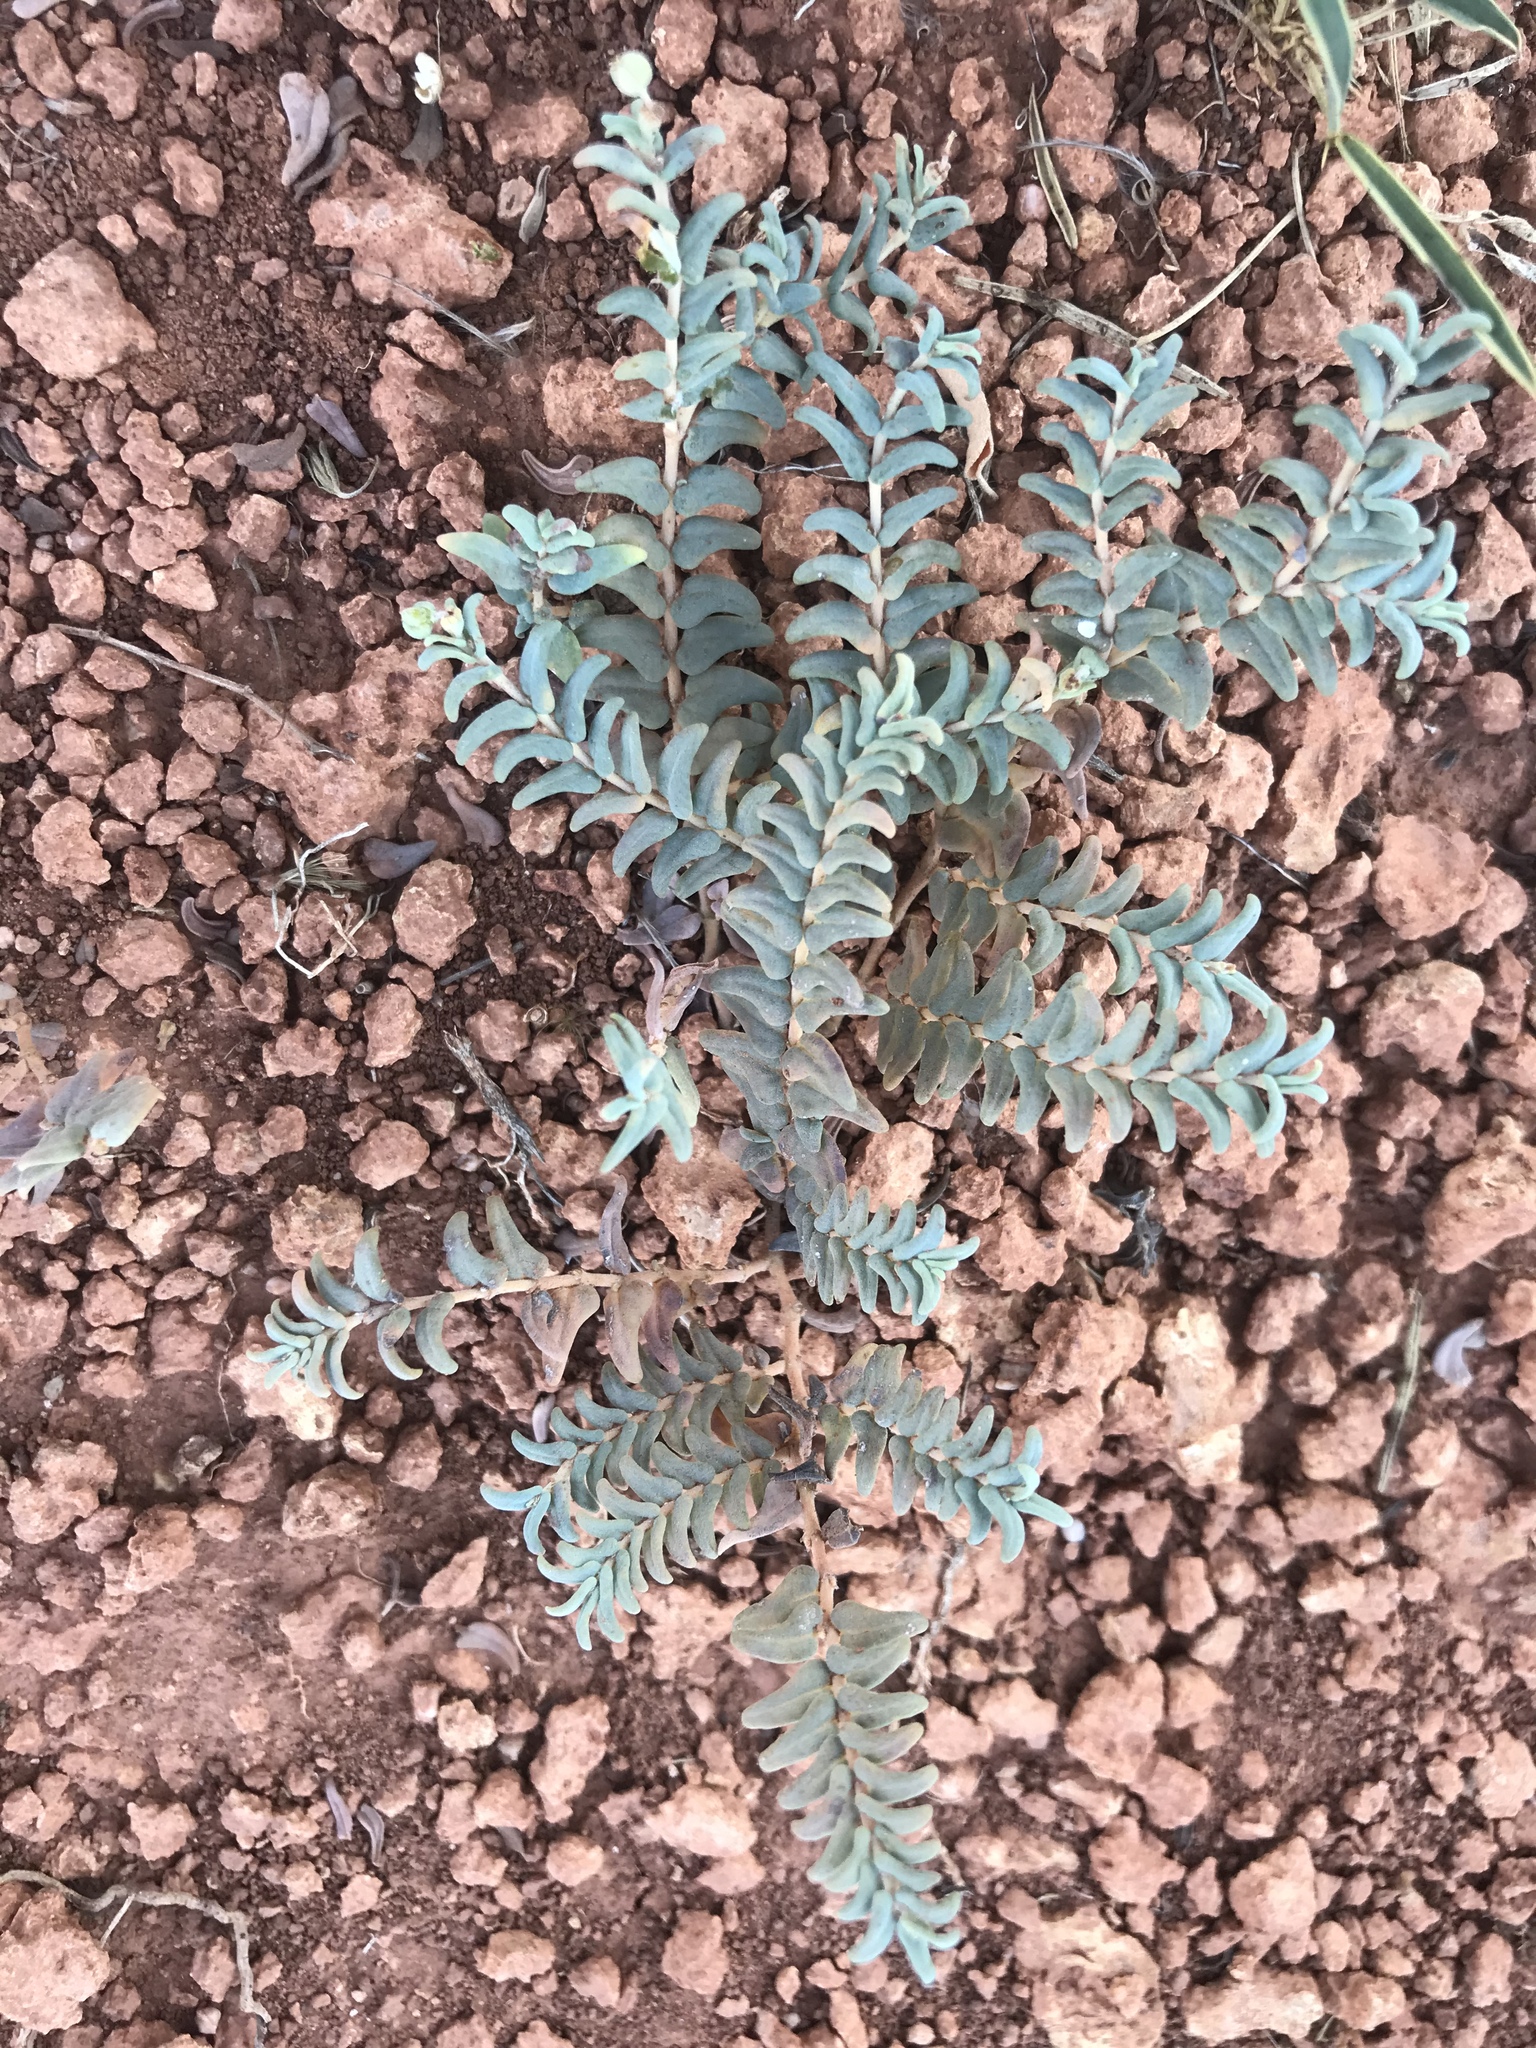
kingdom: Plantae
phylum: Tracheophyta
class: Magnoliopsida
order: Malpighiales
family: Euphorbiaceae
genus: Euphorbia
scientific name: Euphorbia lata
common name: Hoary euphorbia
